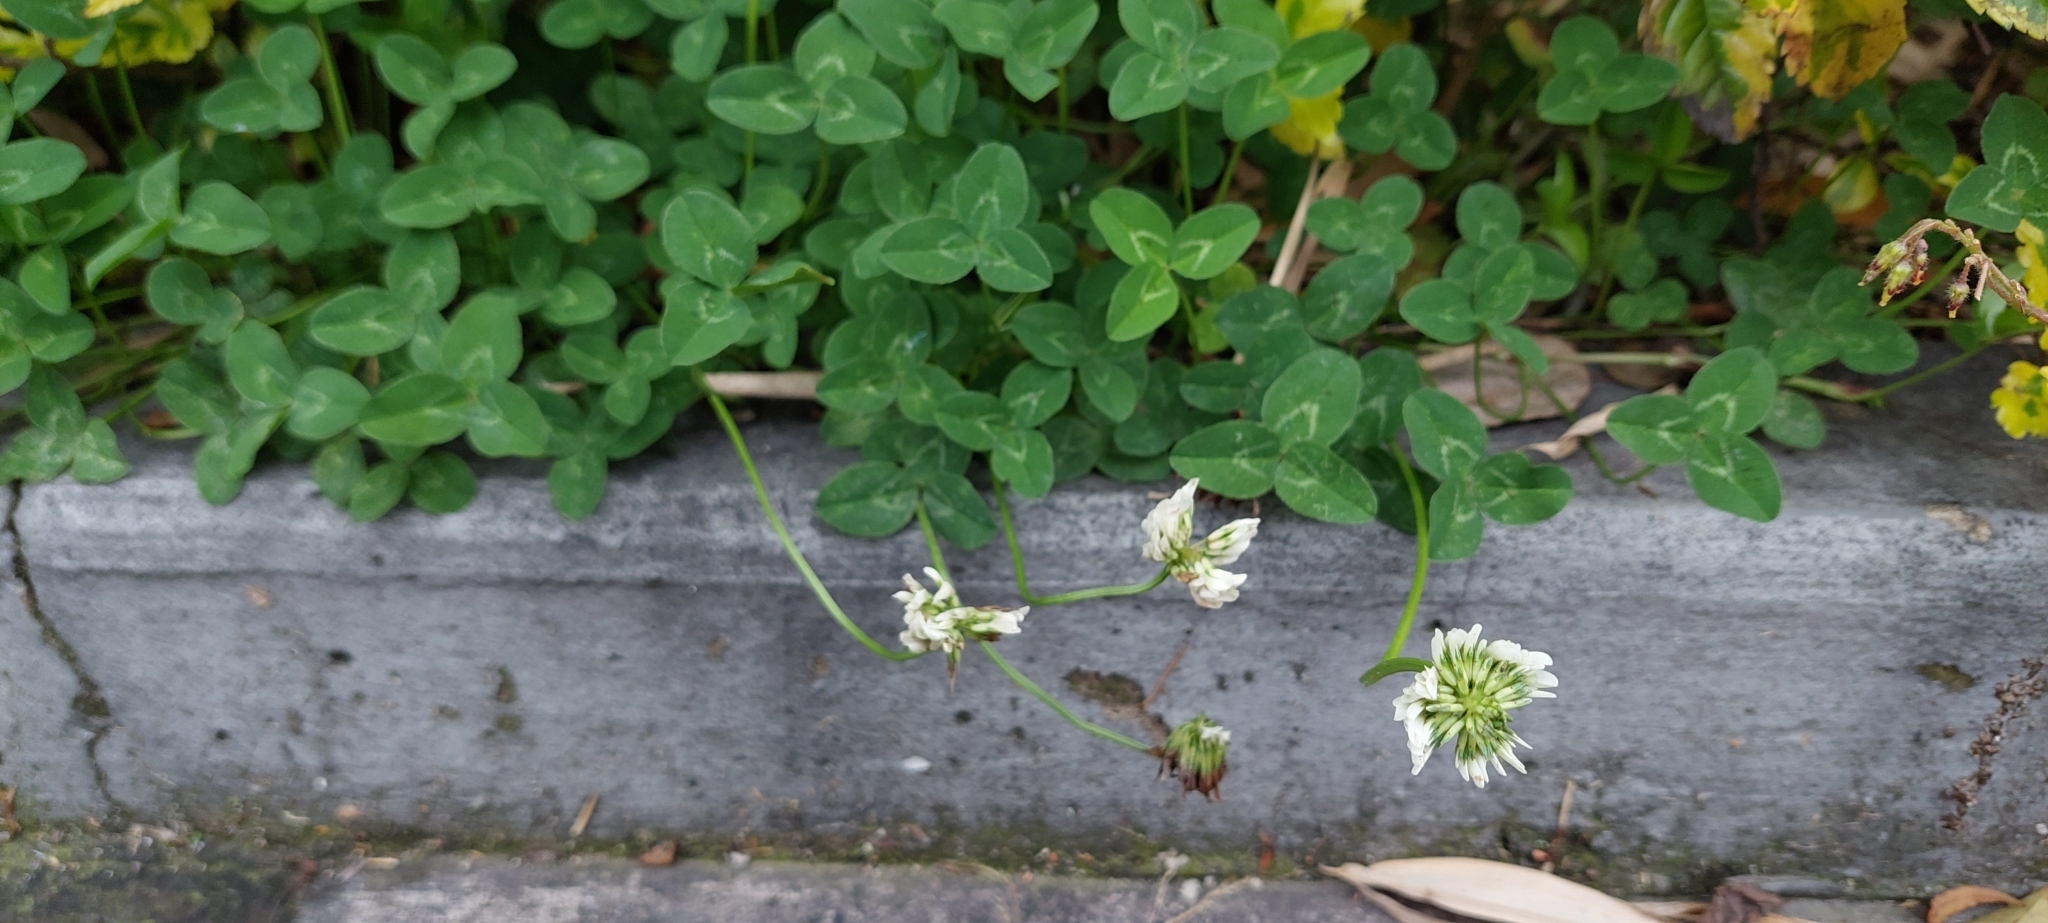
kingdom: Plantae
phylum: Tracheophyta
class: Magnoliopsida
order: Fabales
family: Fabaceae
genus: Trifolium
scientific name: Trifolium repens
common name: White clover
